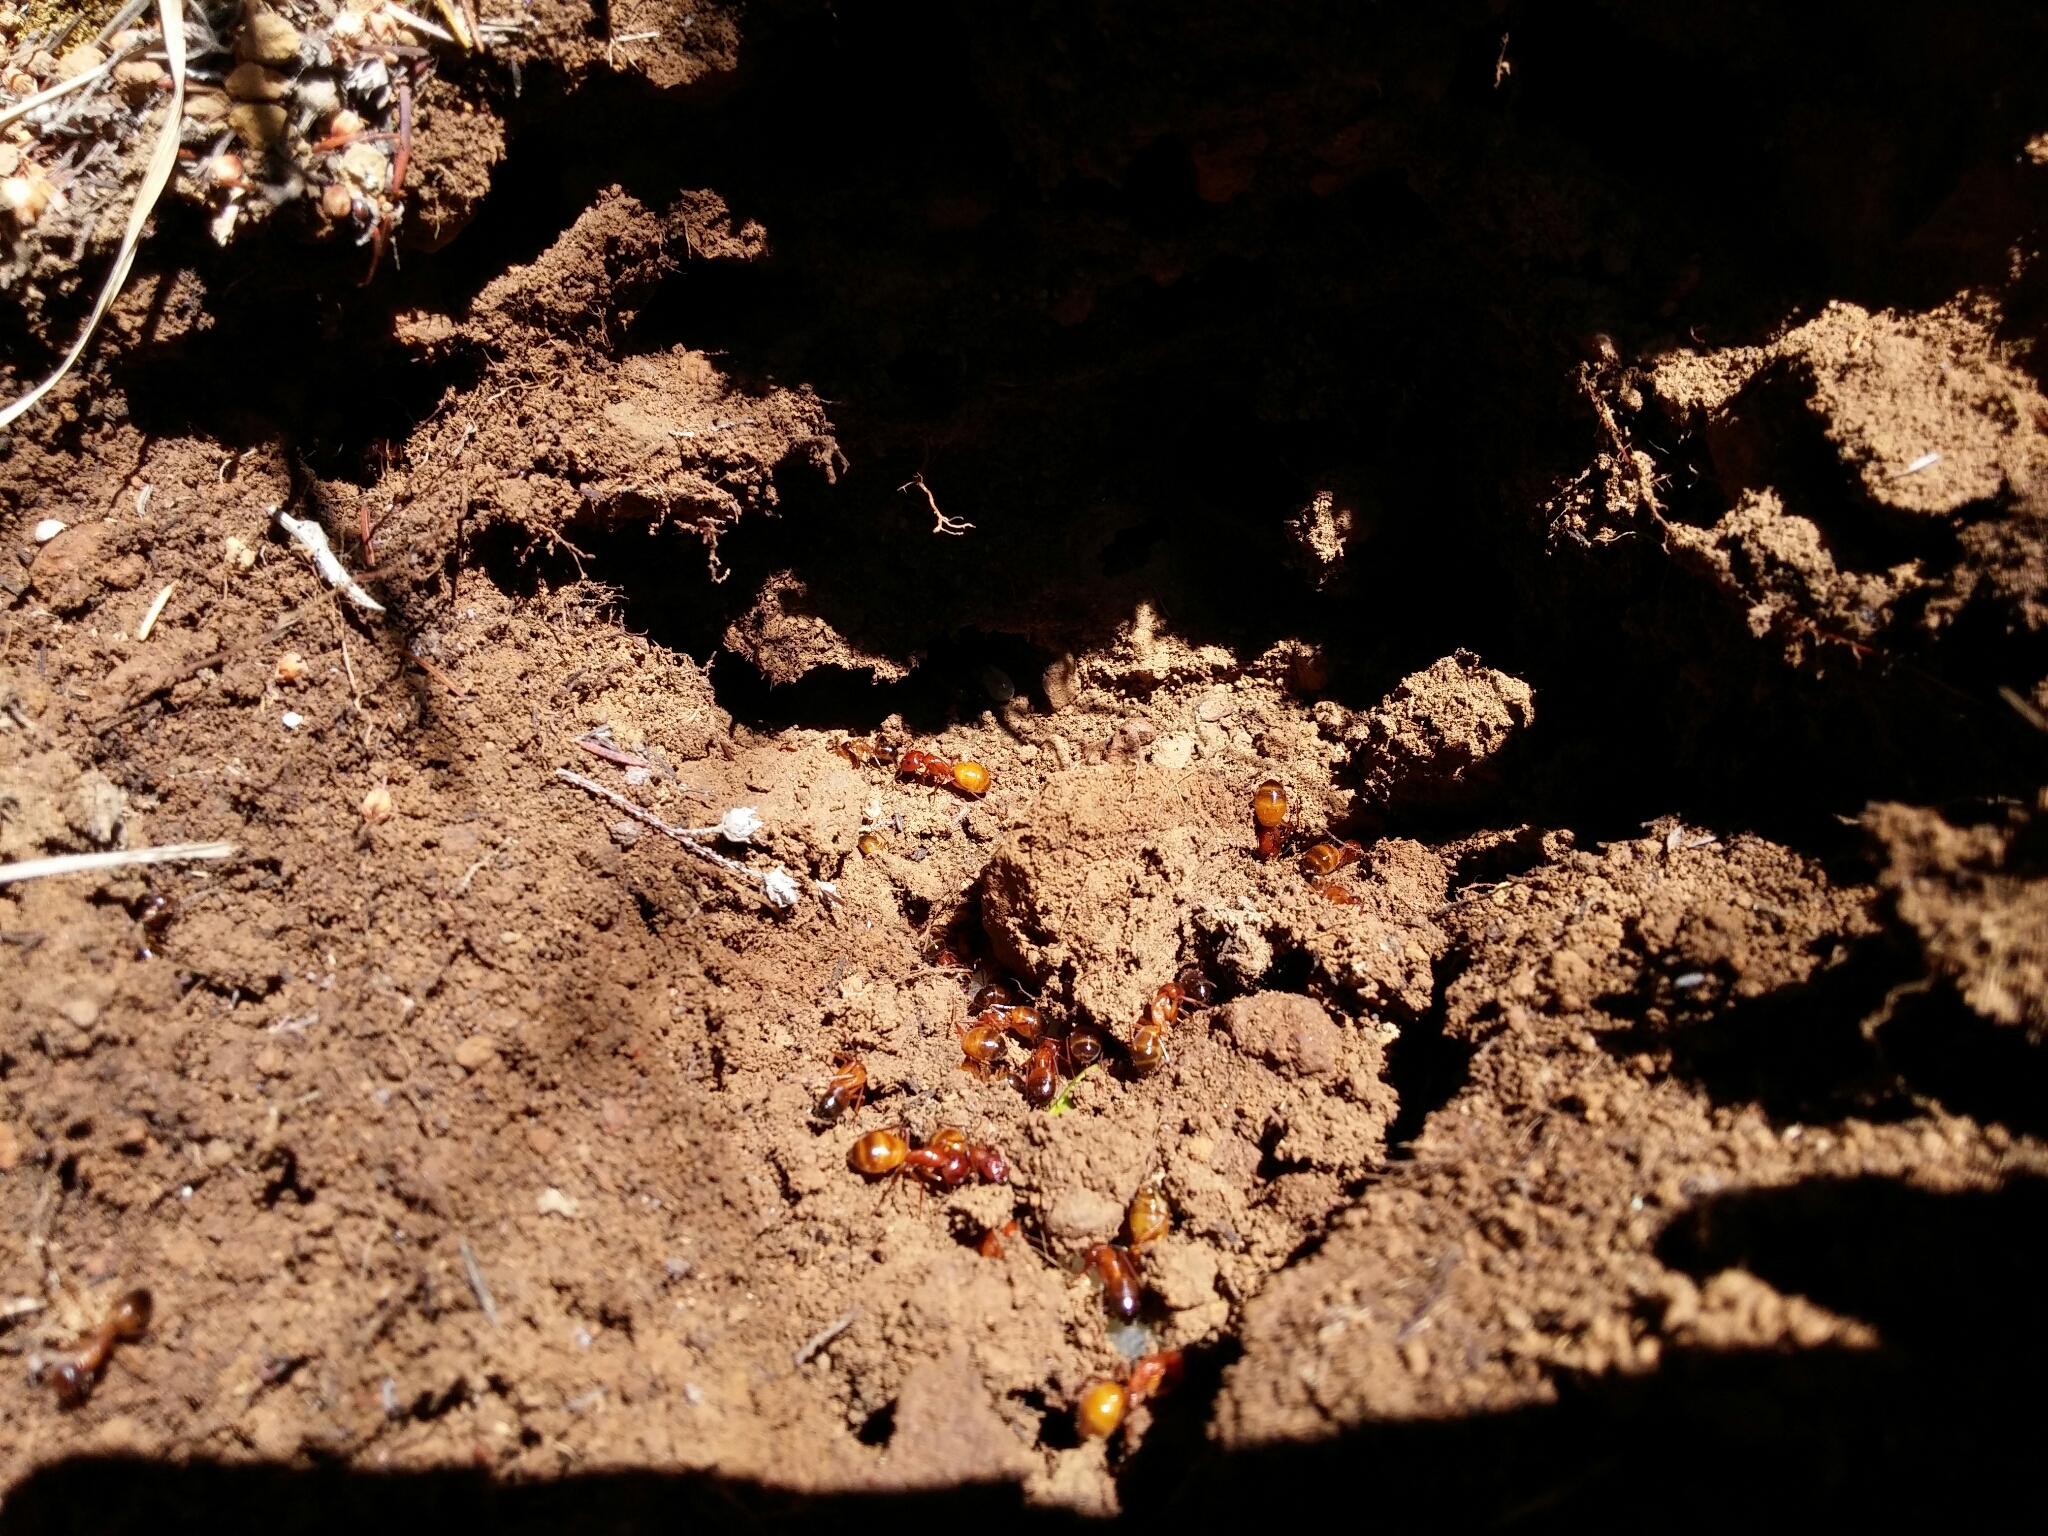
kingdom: Animalia
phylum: Arthropoda
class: Insecta
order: Hymenoptera
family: Formicidae
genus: Camponotus
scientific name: Camponotus nylanderi
